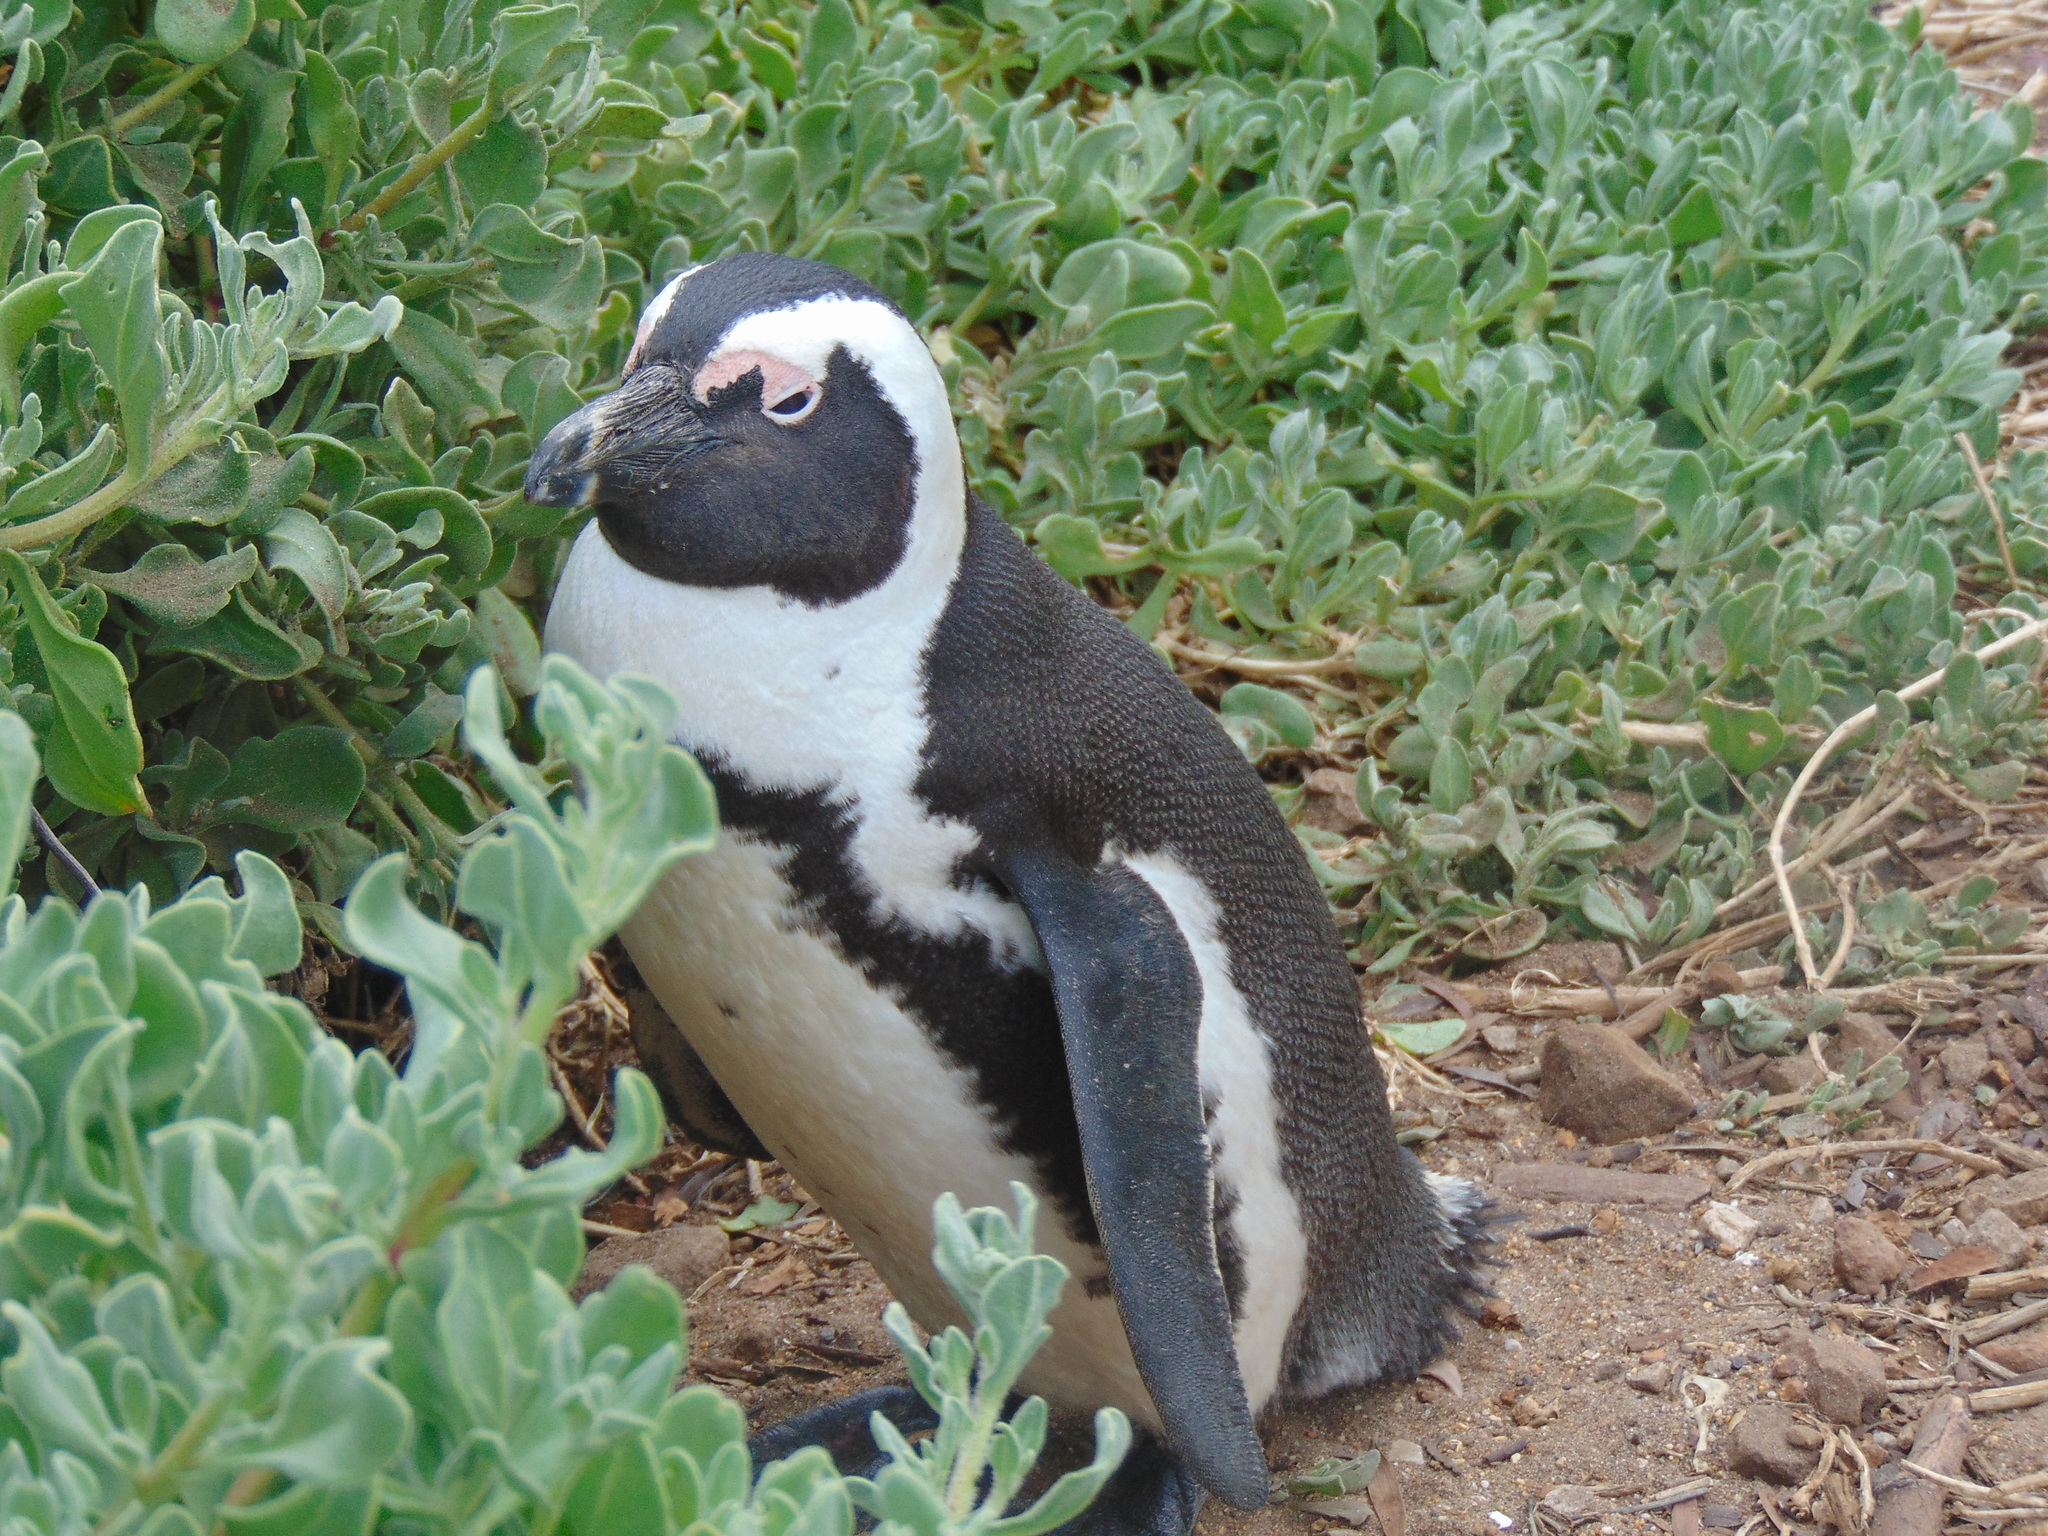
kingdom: Animalia
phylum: Chordata
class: Aves
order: Sphenisciformes
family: Spheniscidae
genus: Spheniscus
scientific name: Spheniscus demersus
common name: African penguin
